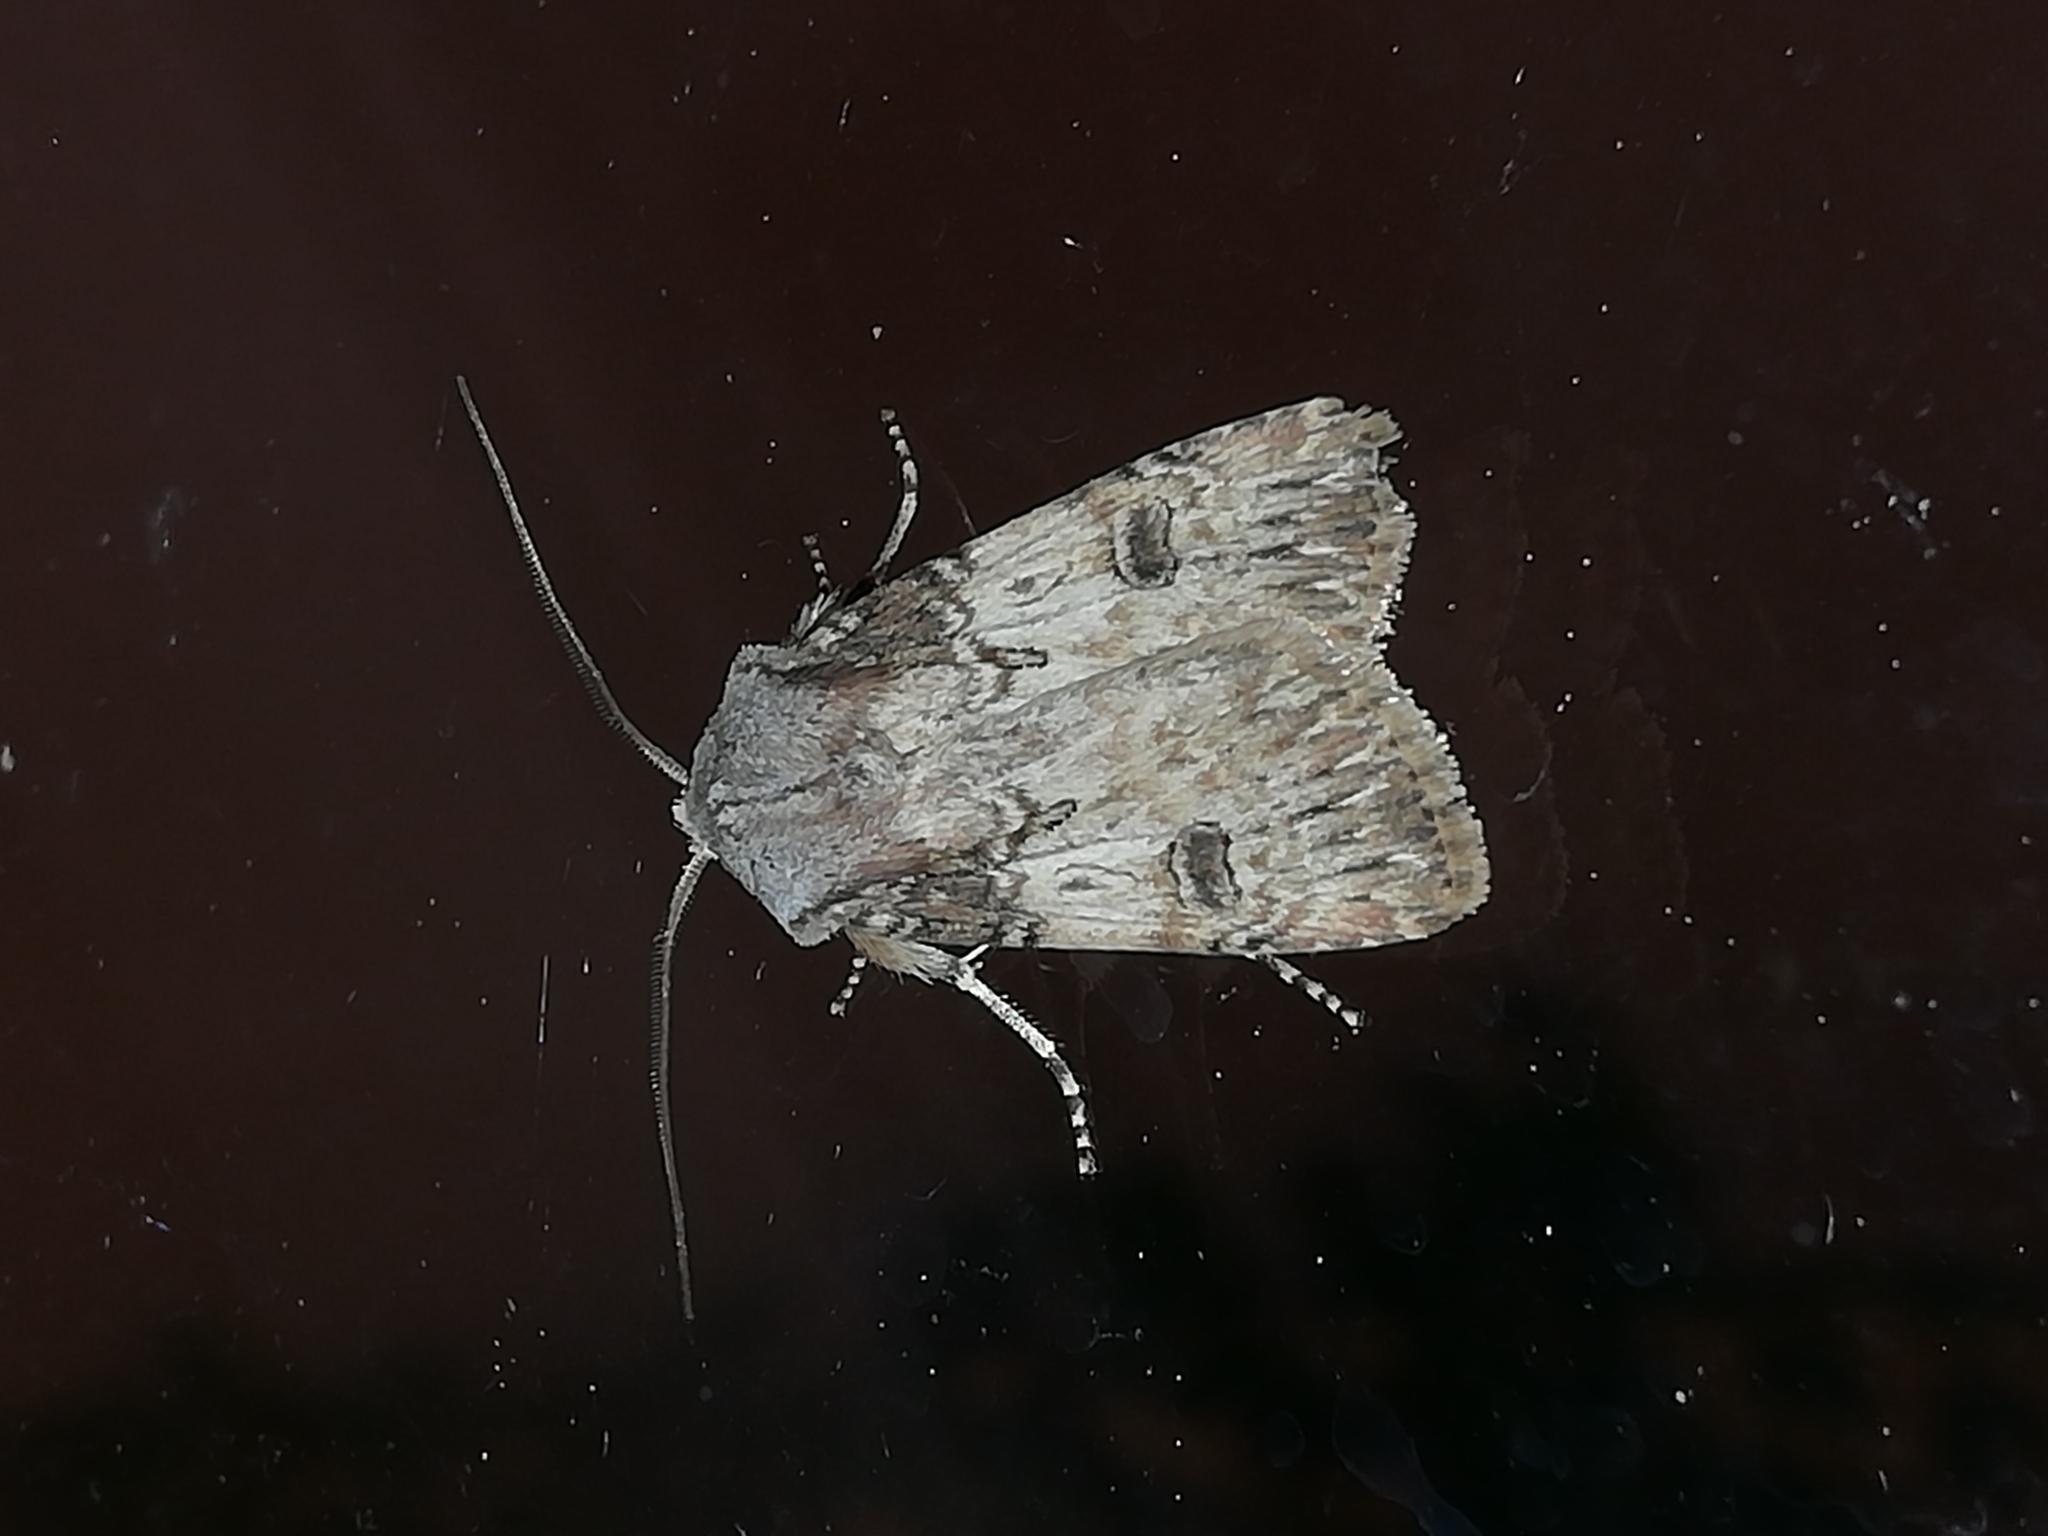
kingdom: Animalia
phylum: Arthropoda
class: Insecta
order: Lepidoptera
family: Noctuidae
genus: Agrotis
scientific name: Agrotis puta
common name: Shuttle-shaped dart
